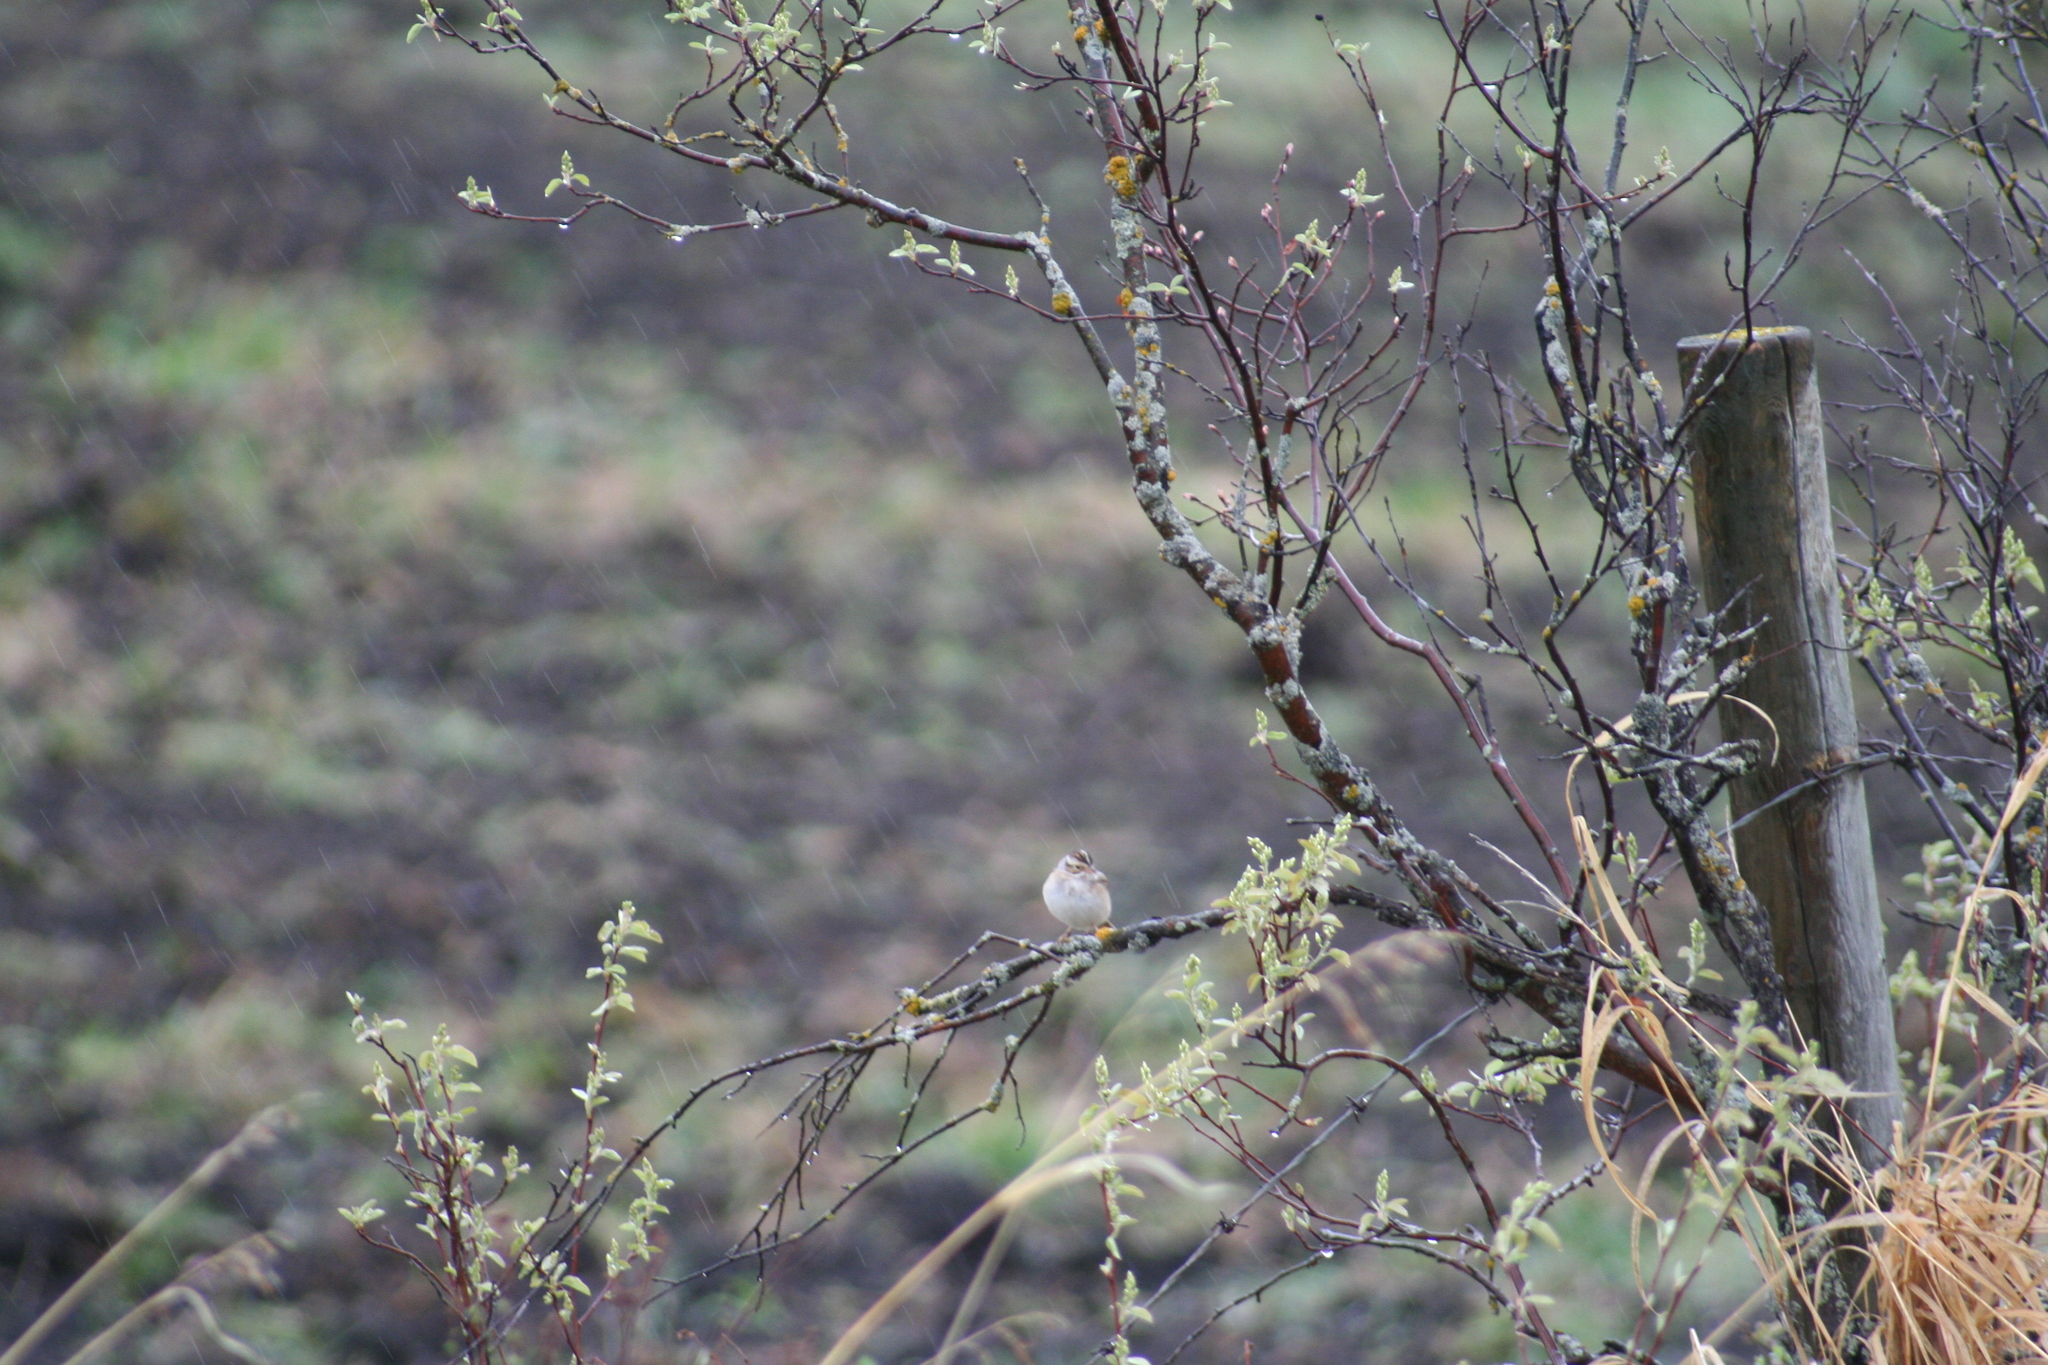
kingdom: Animalia
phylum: Chordata
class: Aves
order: Passeriformes
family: Passerellidae
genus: Spizella
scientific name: Spizella pallida
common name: Clay-colored sparrow
